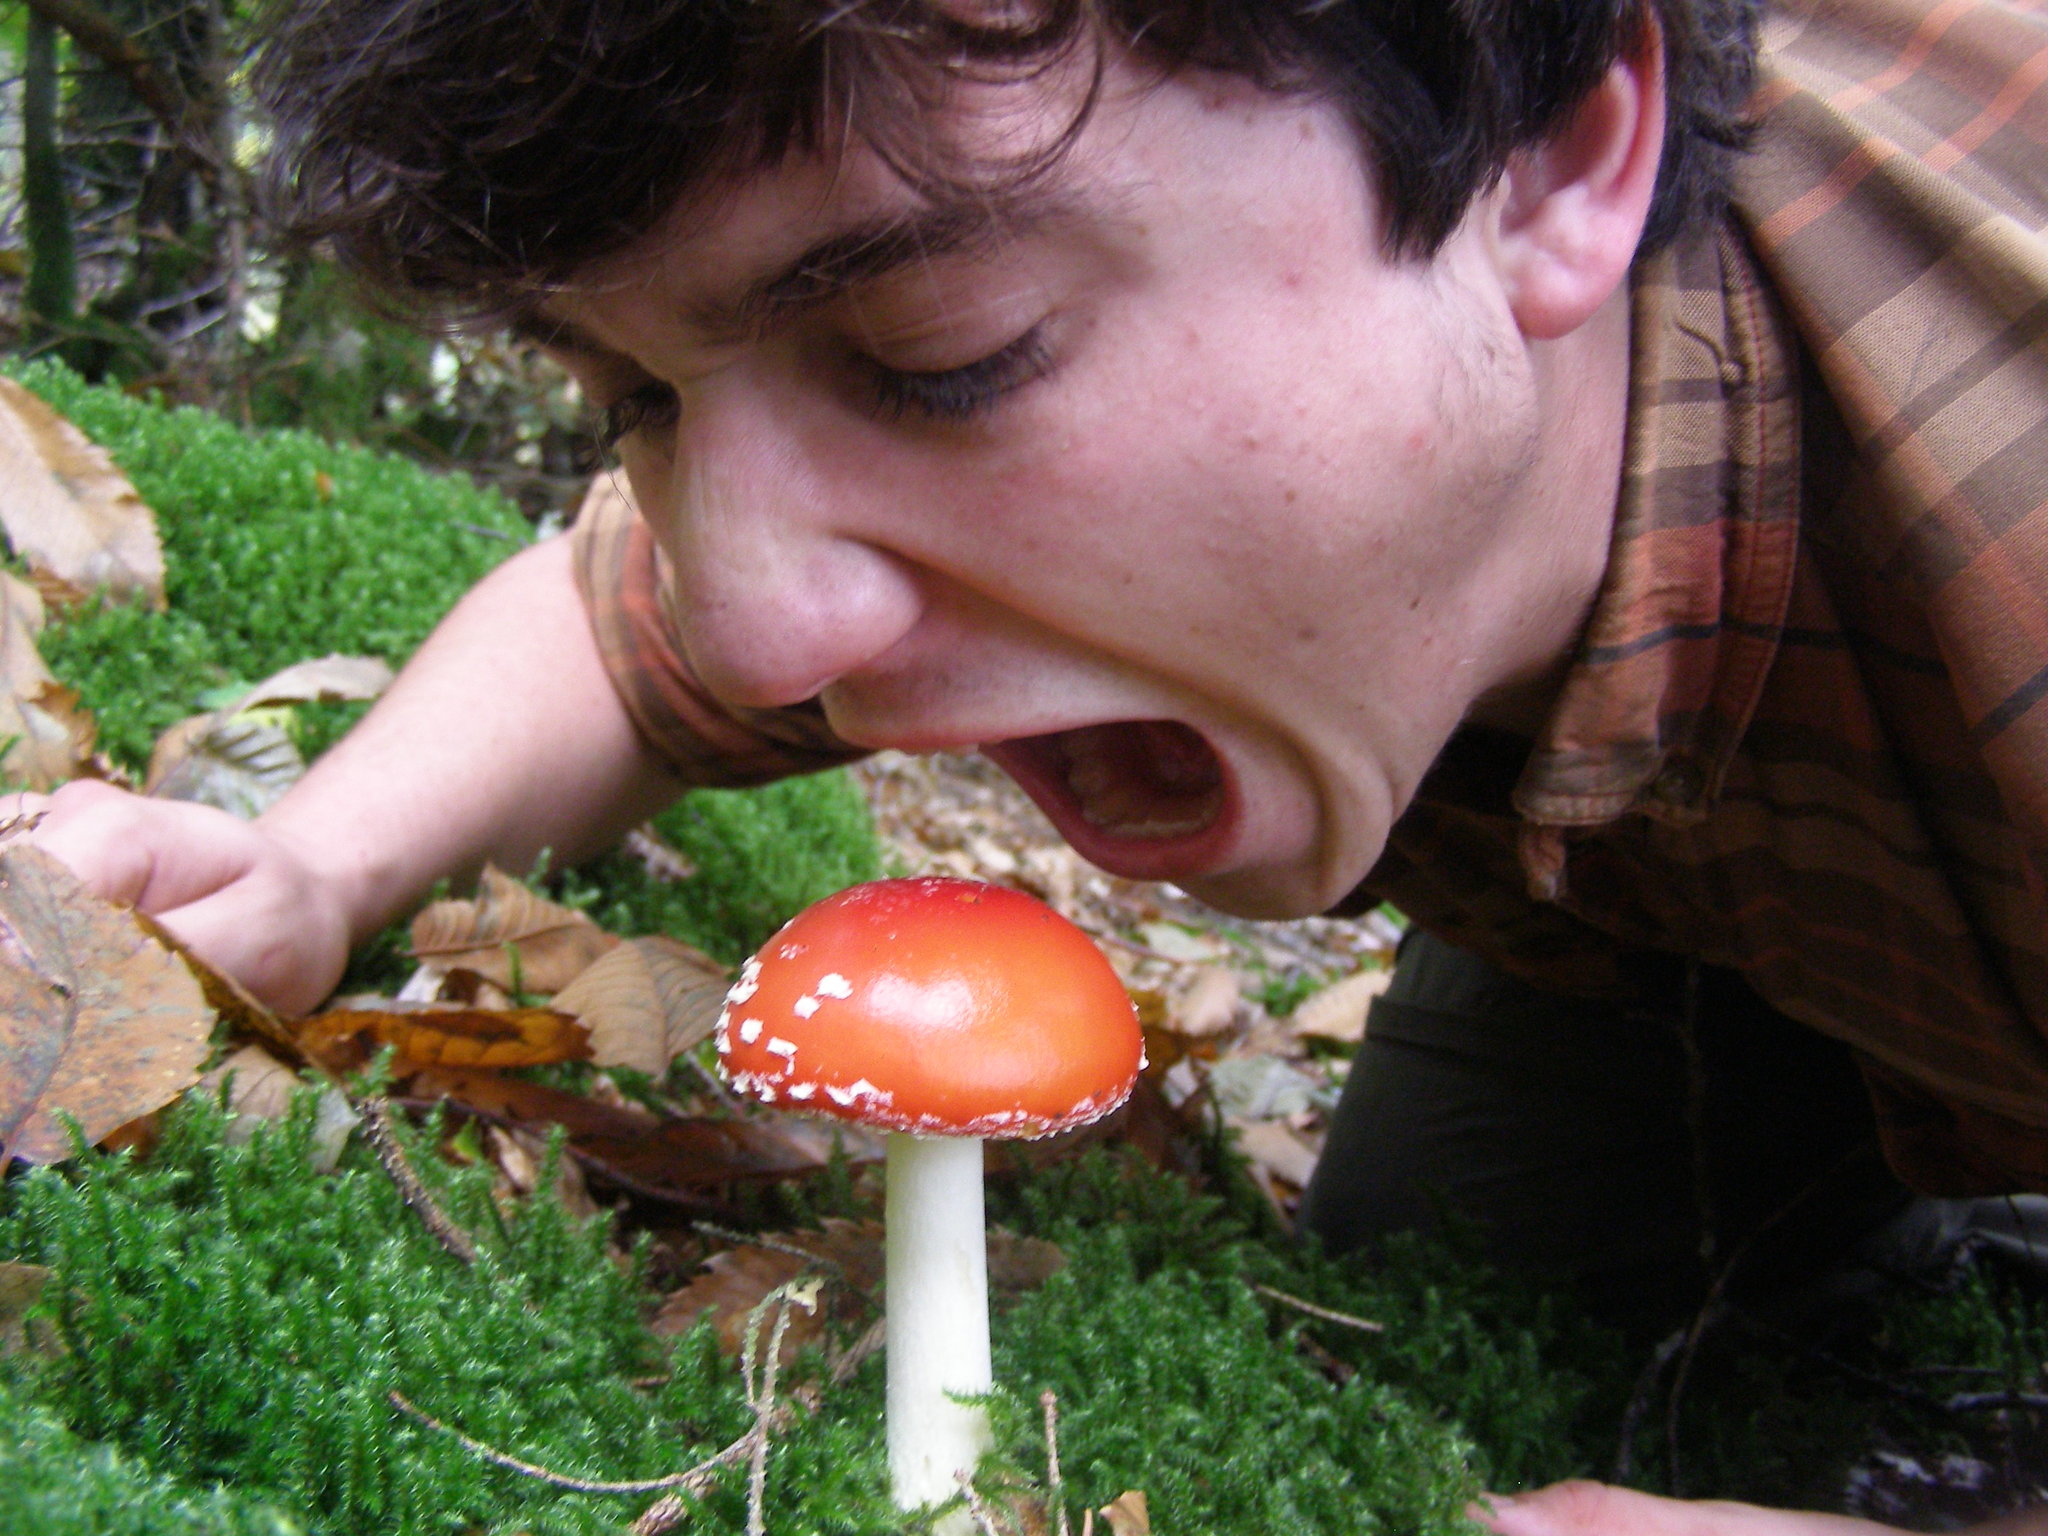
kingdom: Fungi
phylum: Basidiomycota
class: Agaricomycetes
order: Agaricales
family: Amanitaceae
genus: Amanita
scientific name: Amanita muscaria
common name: Fly agaric
